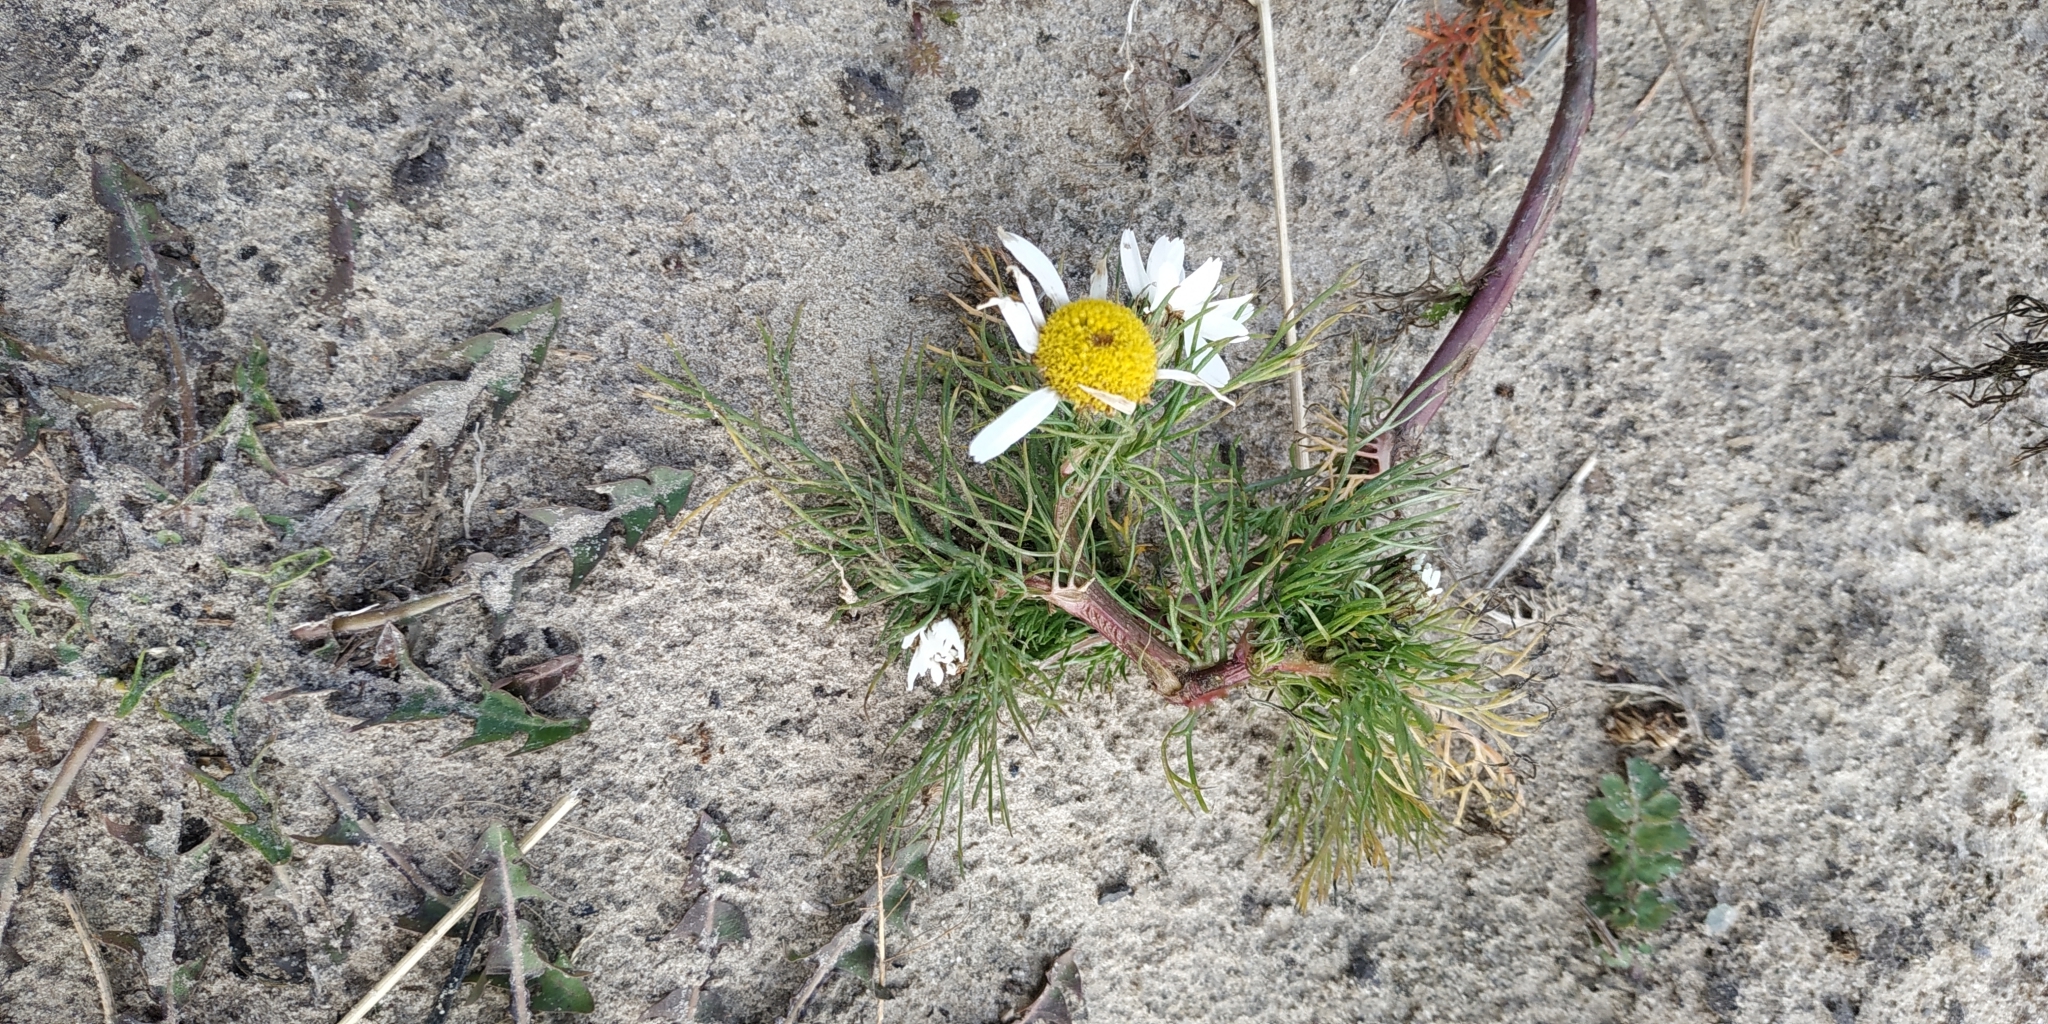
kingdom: Plantae
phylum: Tracheophyta
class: Magnoliopsida
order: Asterales
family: Asteraceae
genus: Tripleurospermum
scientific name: Tripleurospermum inodorum
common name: Scentless mayweed
